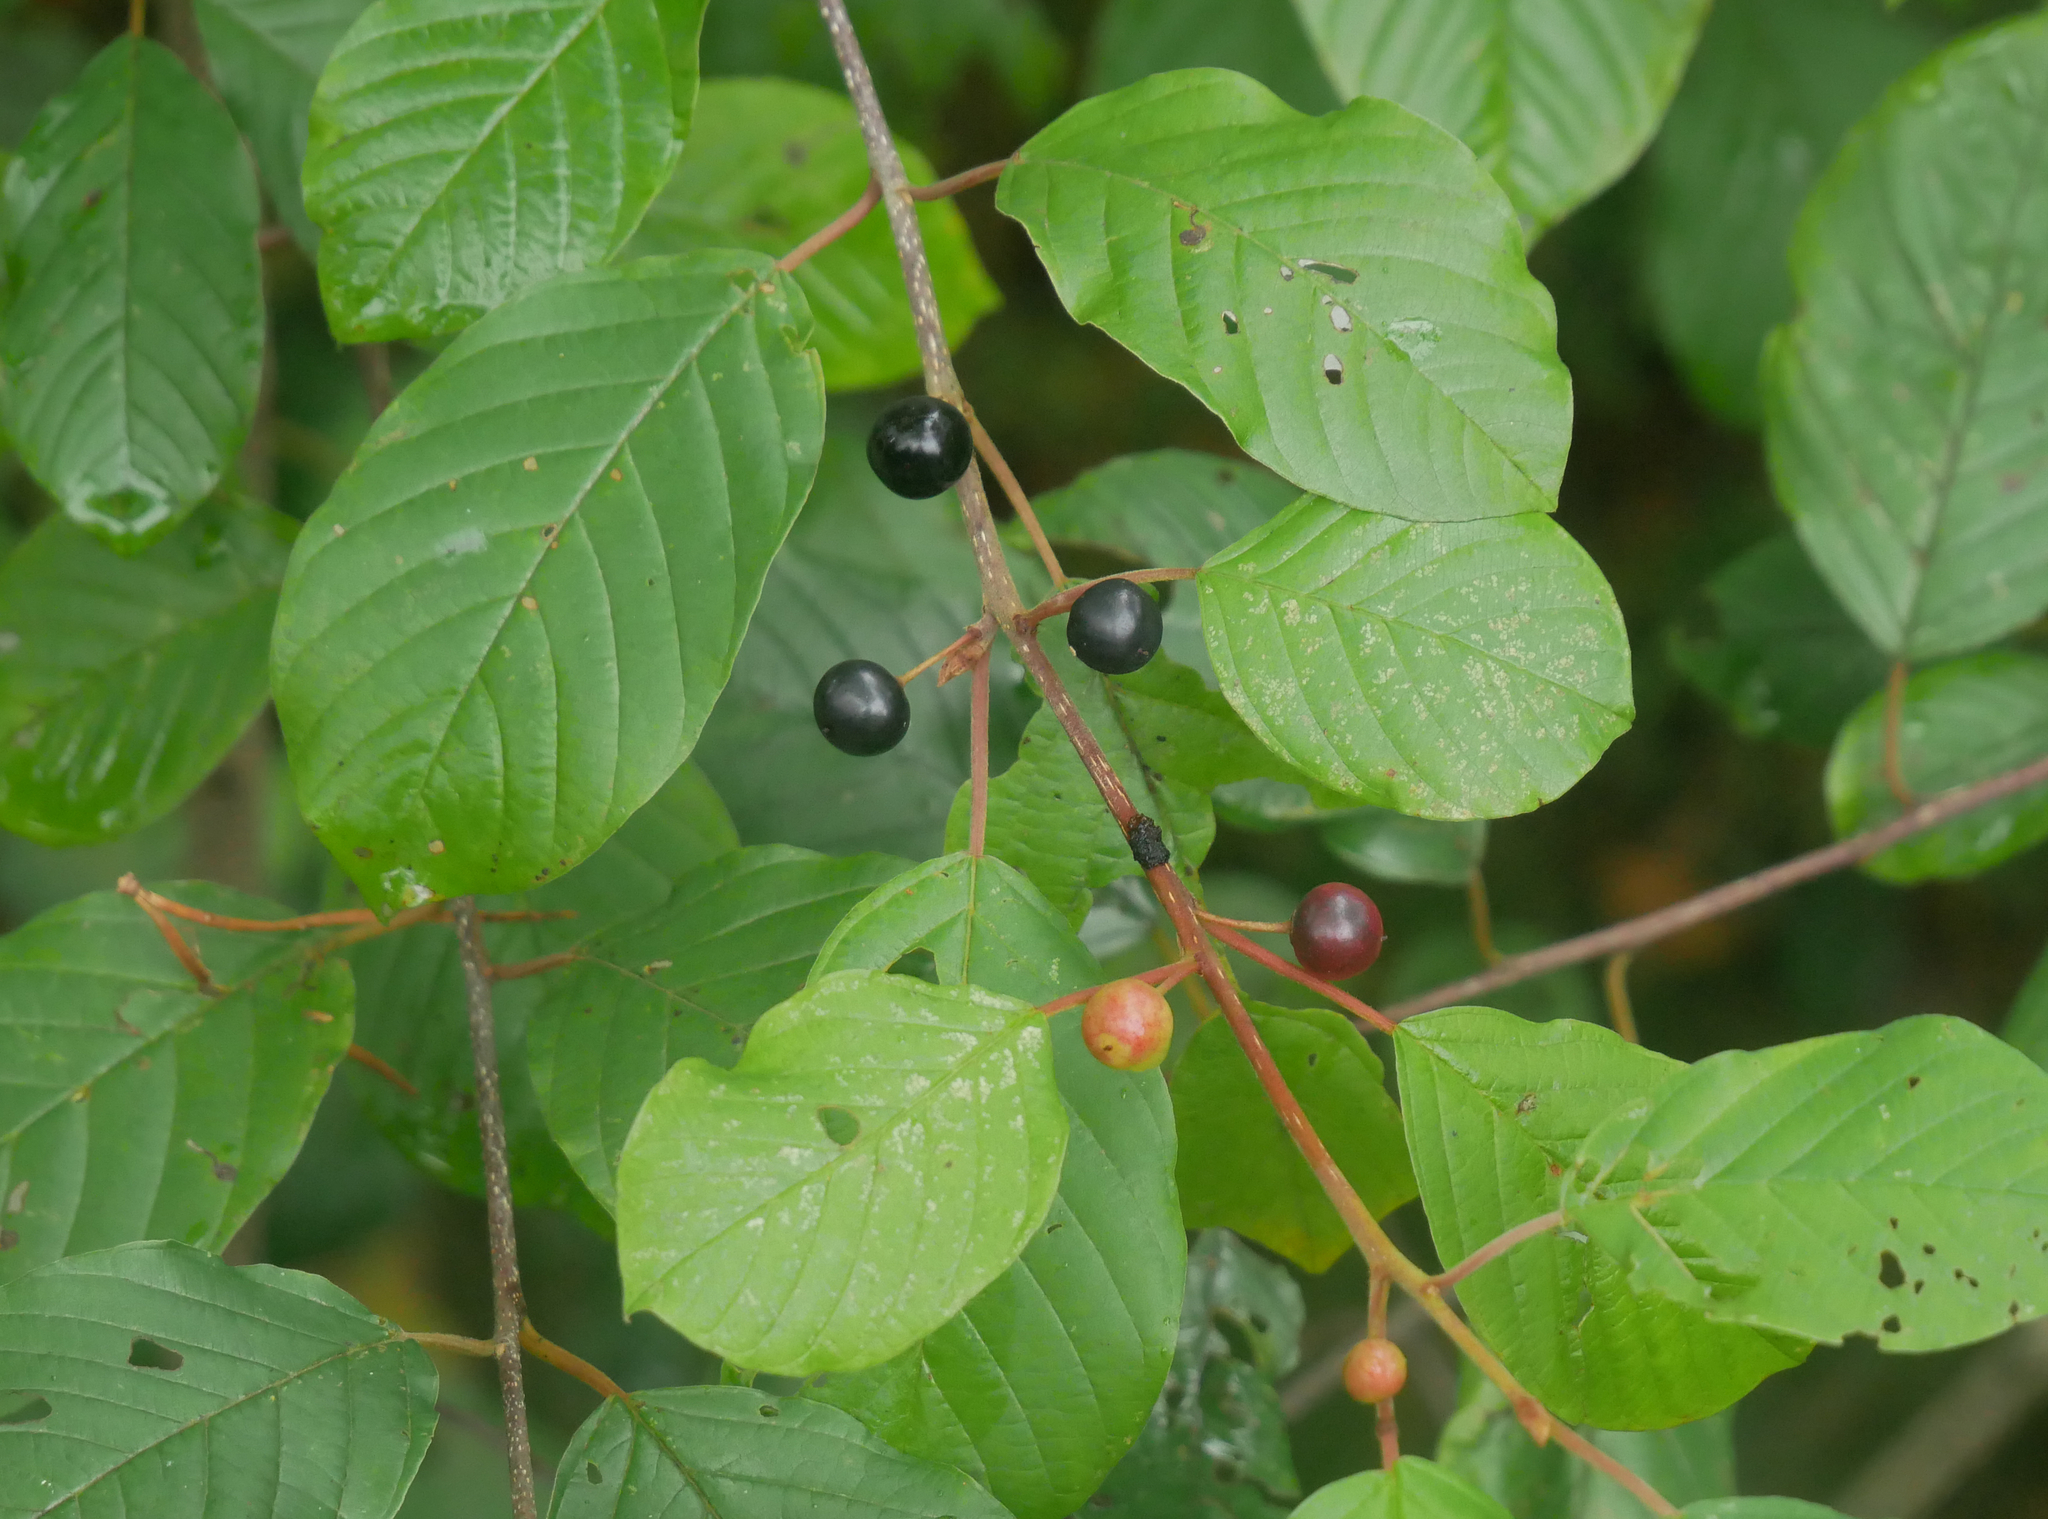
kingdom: Plantae
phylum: Tracheophyta
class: Magnoliopsida
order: Rosales
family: Rhamnaceae
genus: Frangula
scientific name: Frangula alnus
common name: Alder buckthorn
